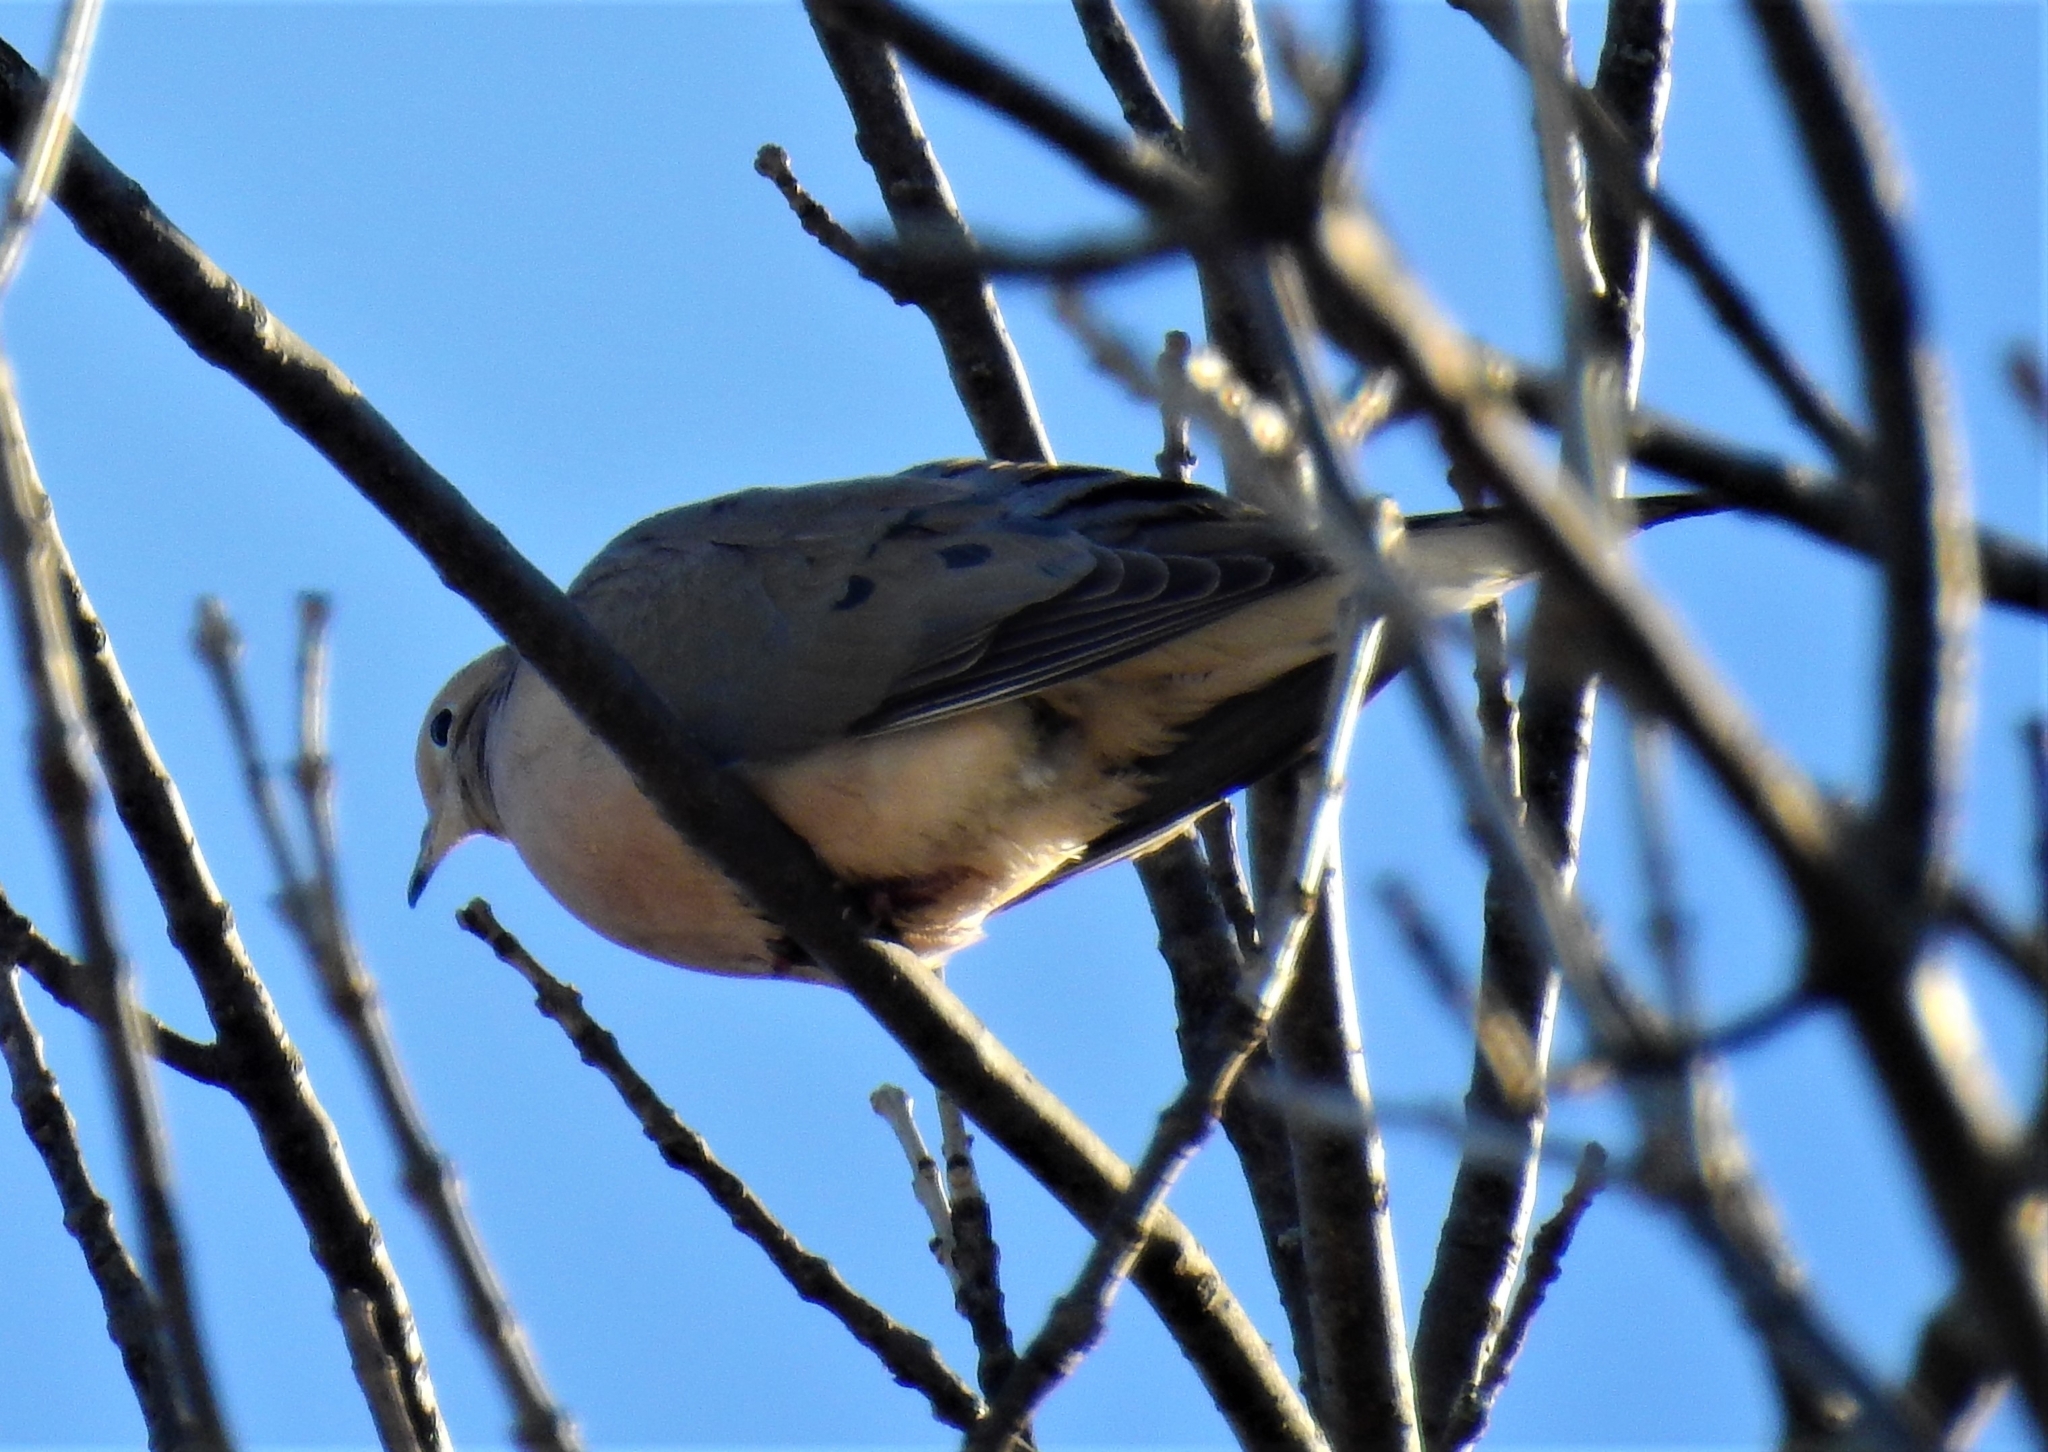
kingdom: Animalia
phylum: Chordata
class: Aves
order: Columbiformes
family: Columbidae
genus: Zenaida
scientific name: Zenaida macroura
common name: Mourning dove
